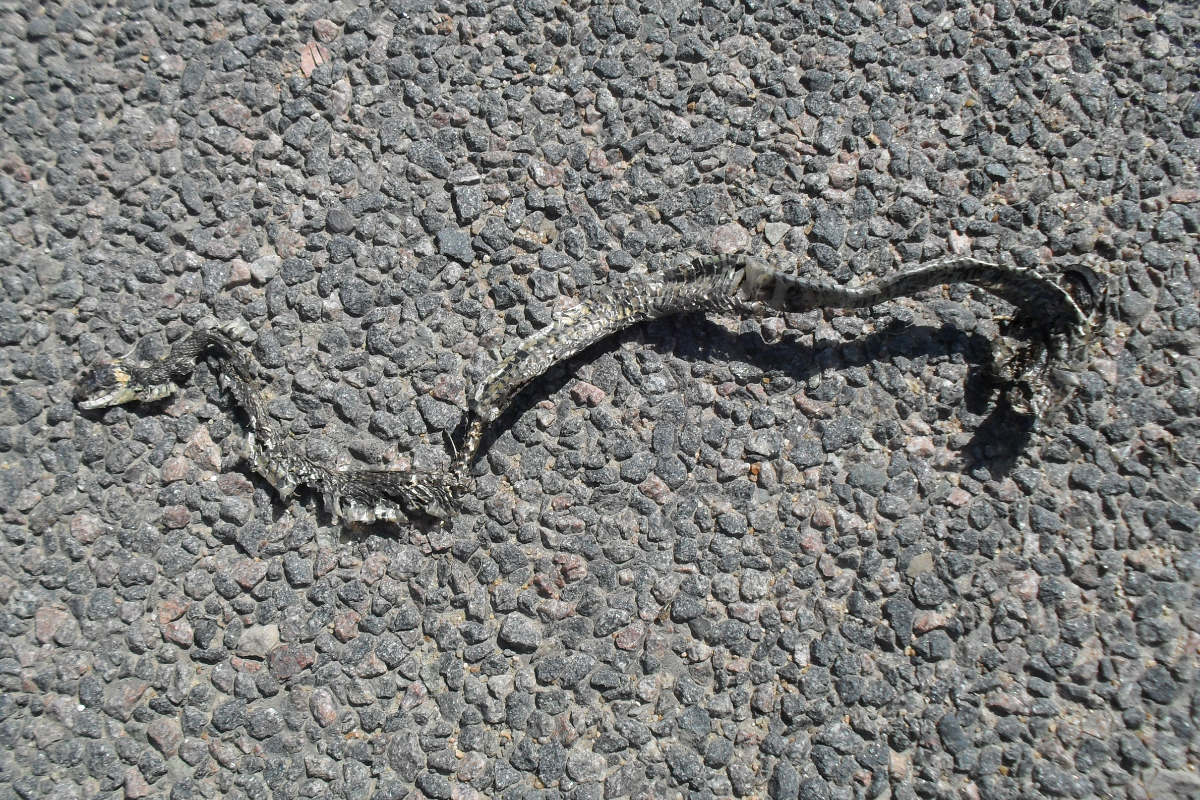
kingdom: Animalia
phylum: Chordata
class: Squamata
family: Colubridae
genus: Natrix
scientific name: Natrix natrix
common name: Grass snake
